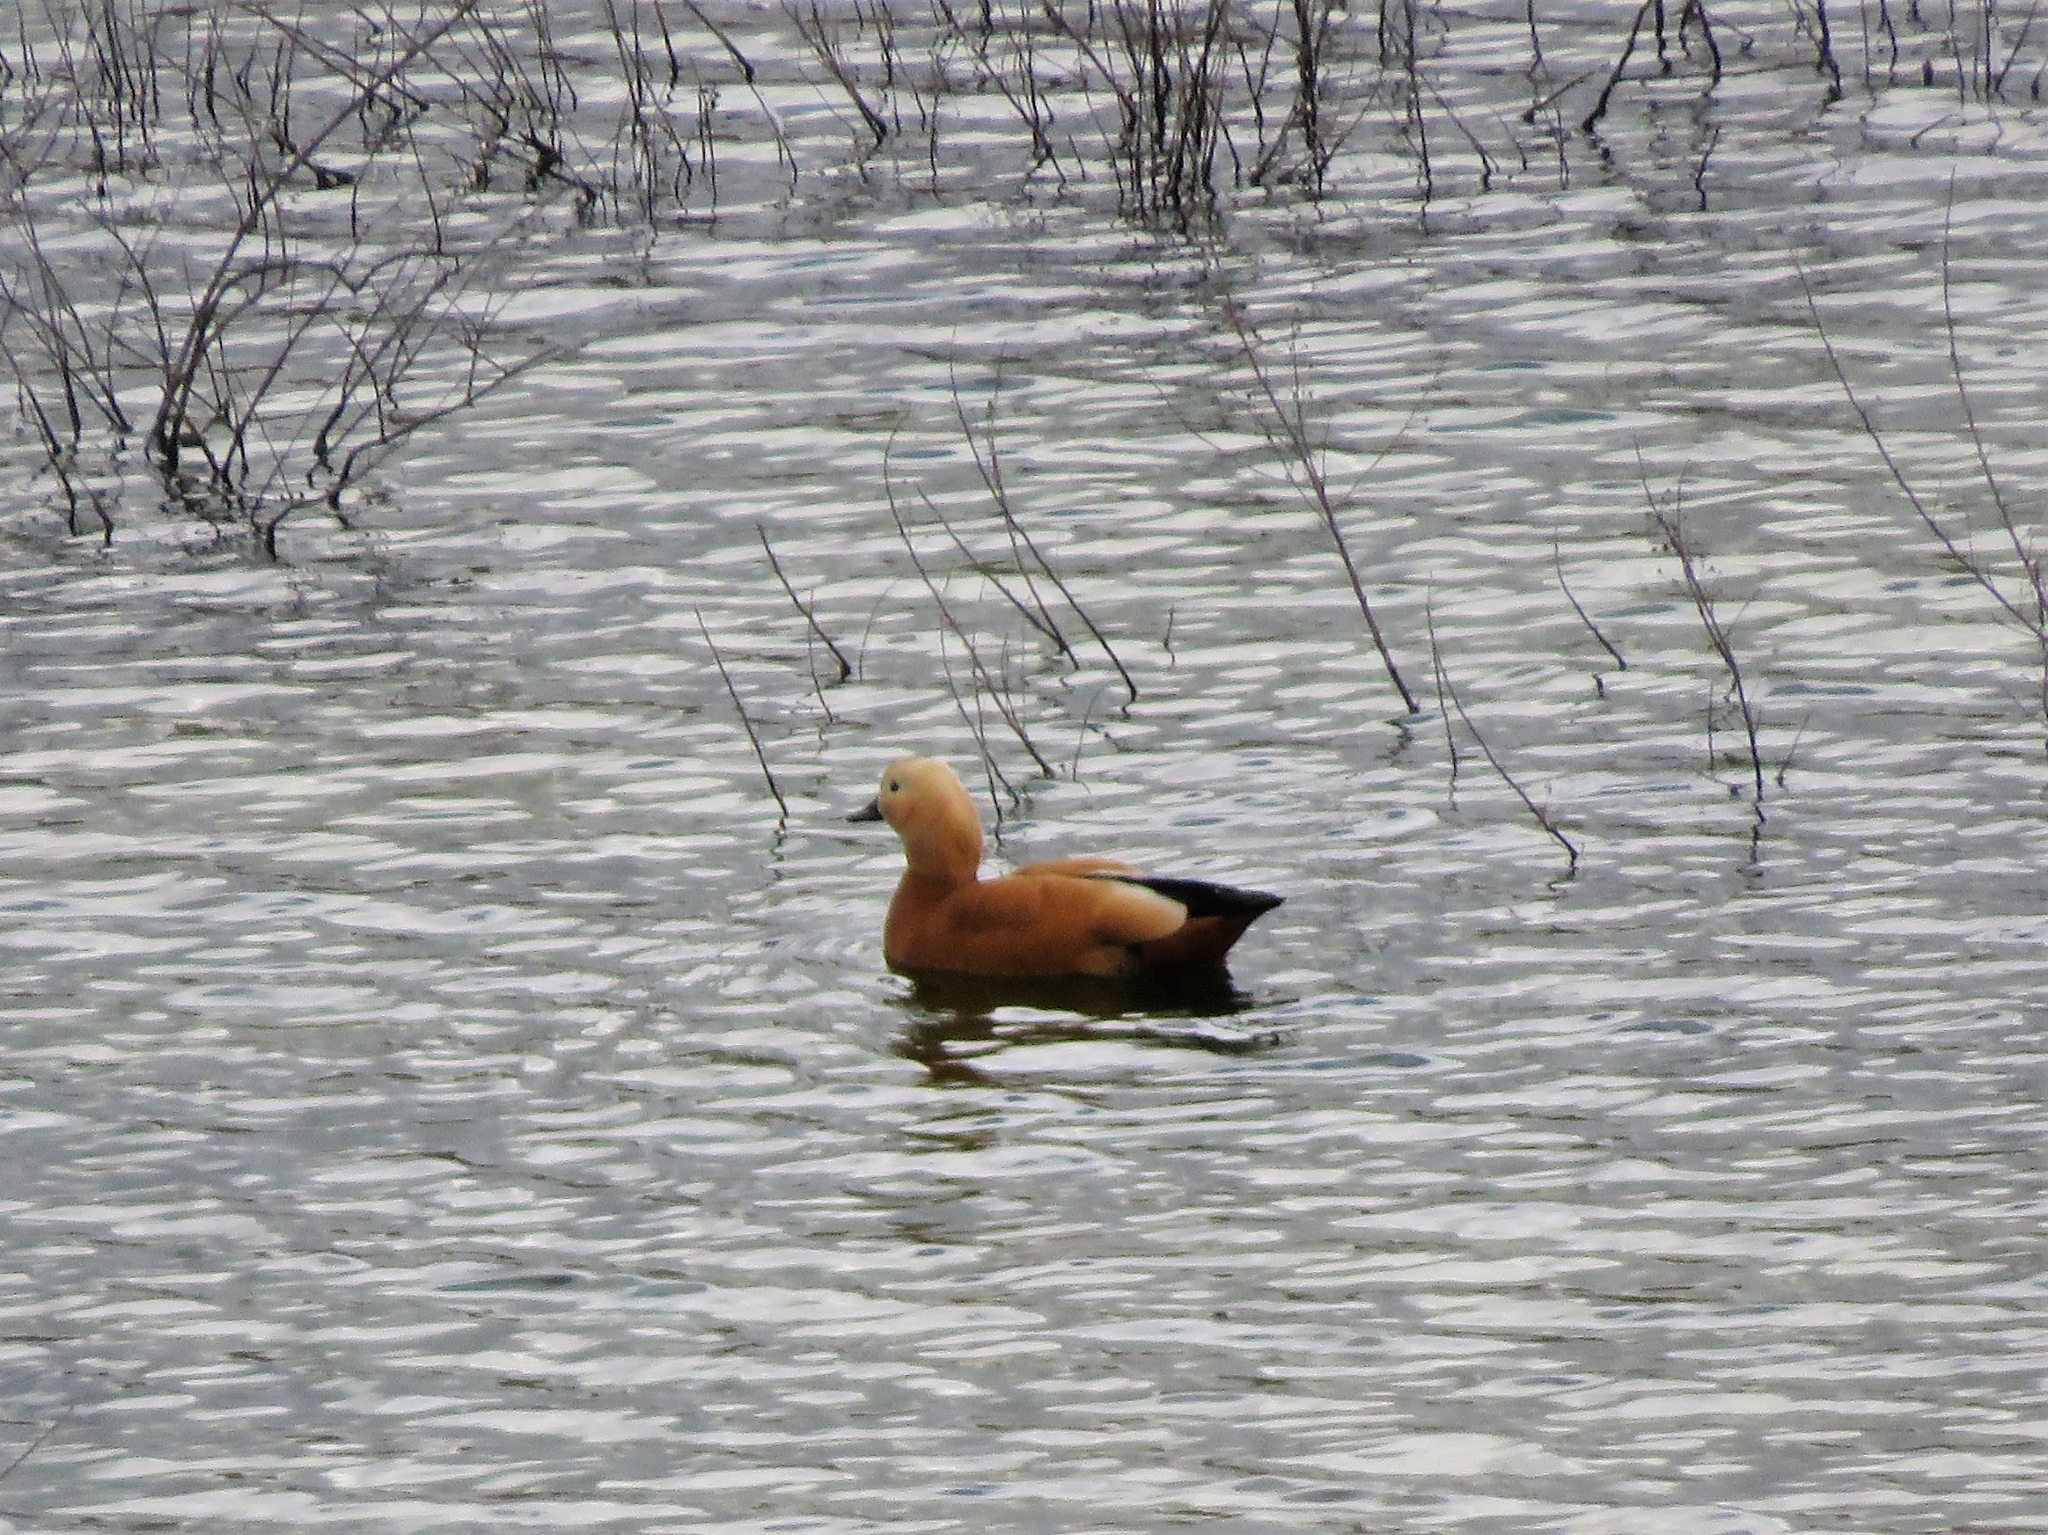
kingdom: Animalia
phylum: Chordata
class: Aves
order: Anseriformes
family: Anatidae
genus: Tadorna
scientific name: Tadorna ferruginea
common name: Ruddy shelduck
